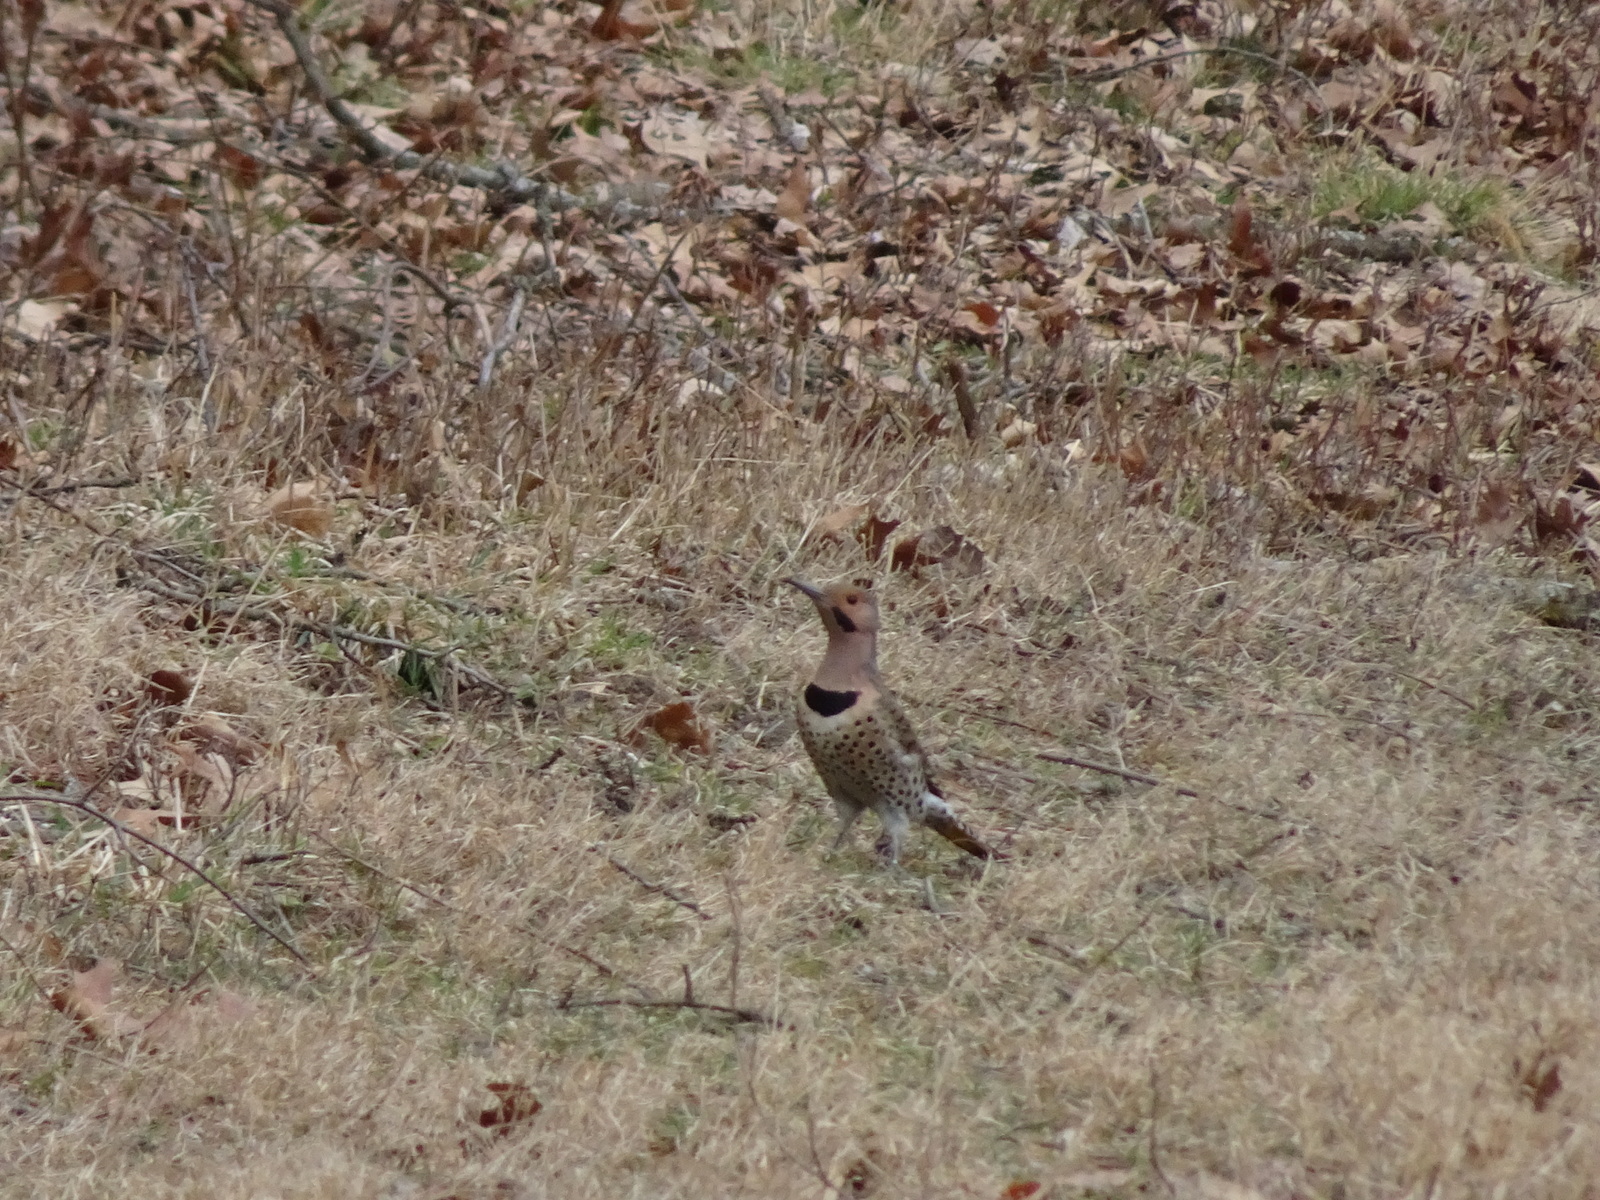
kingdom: Animalia
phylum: Chordata
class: Aves
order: Piciformes
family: Picidae
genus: Colaptes
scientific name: Colaptes auratus
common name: Northern flicker
